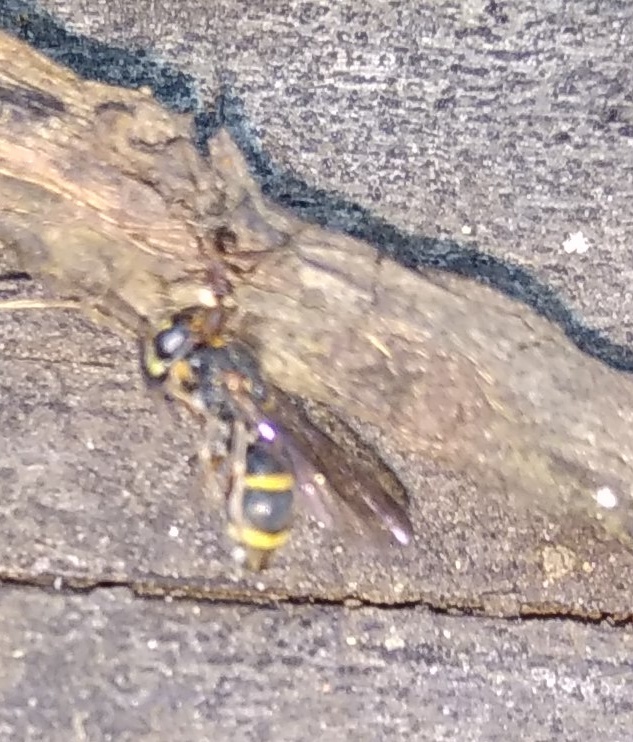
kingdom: Animalia
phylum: Arthropoda
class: Insecta
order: Hymenoptera
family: Eumenidae
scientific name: Eumenidae
